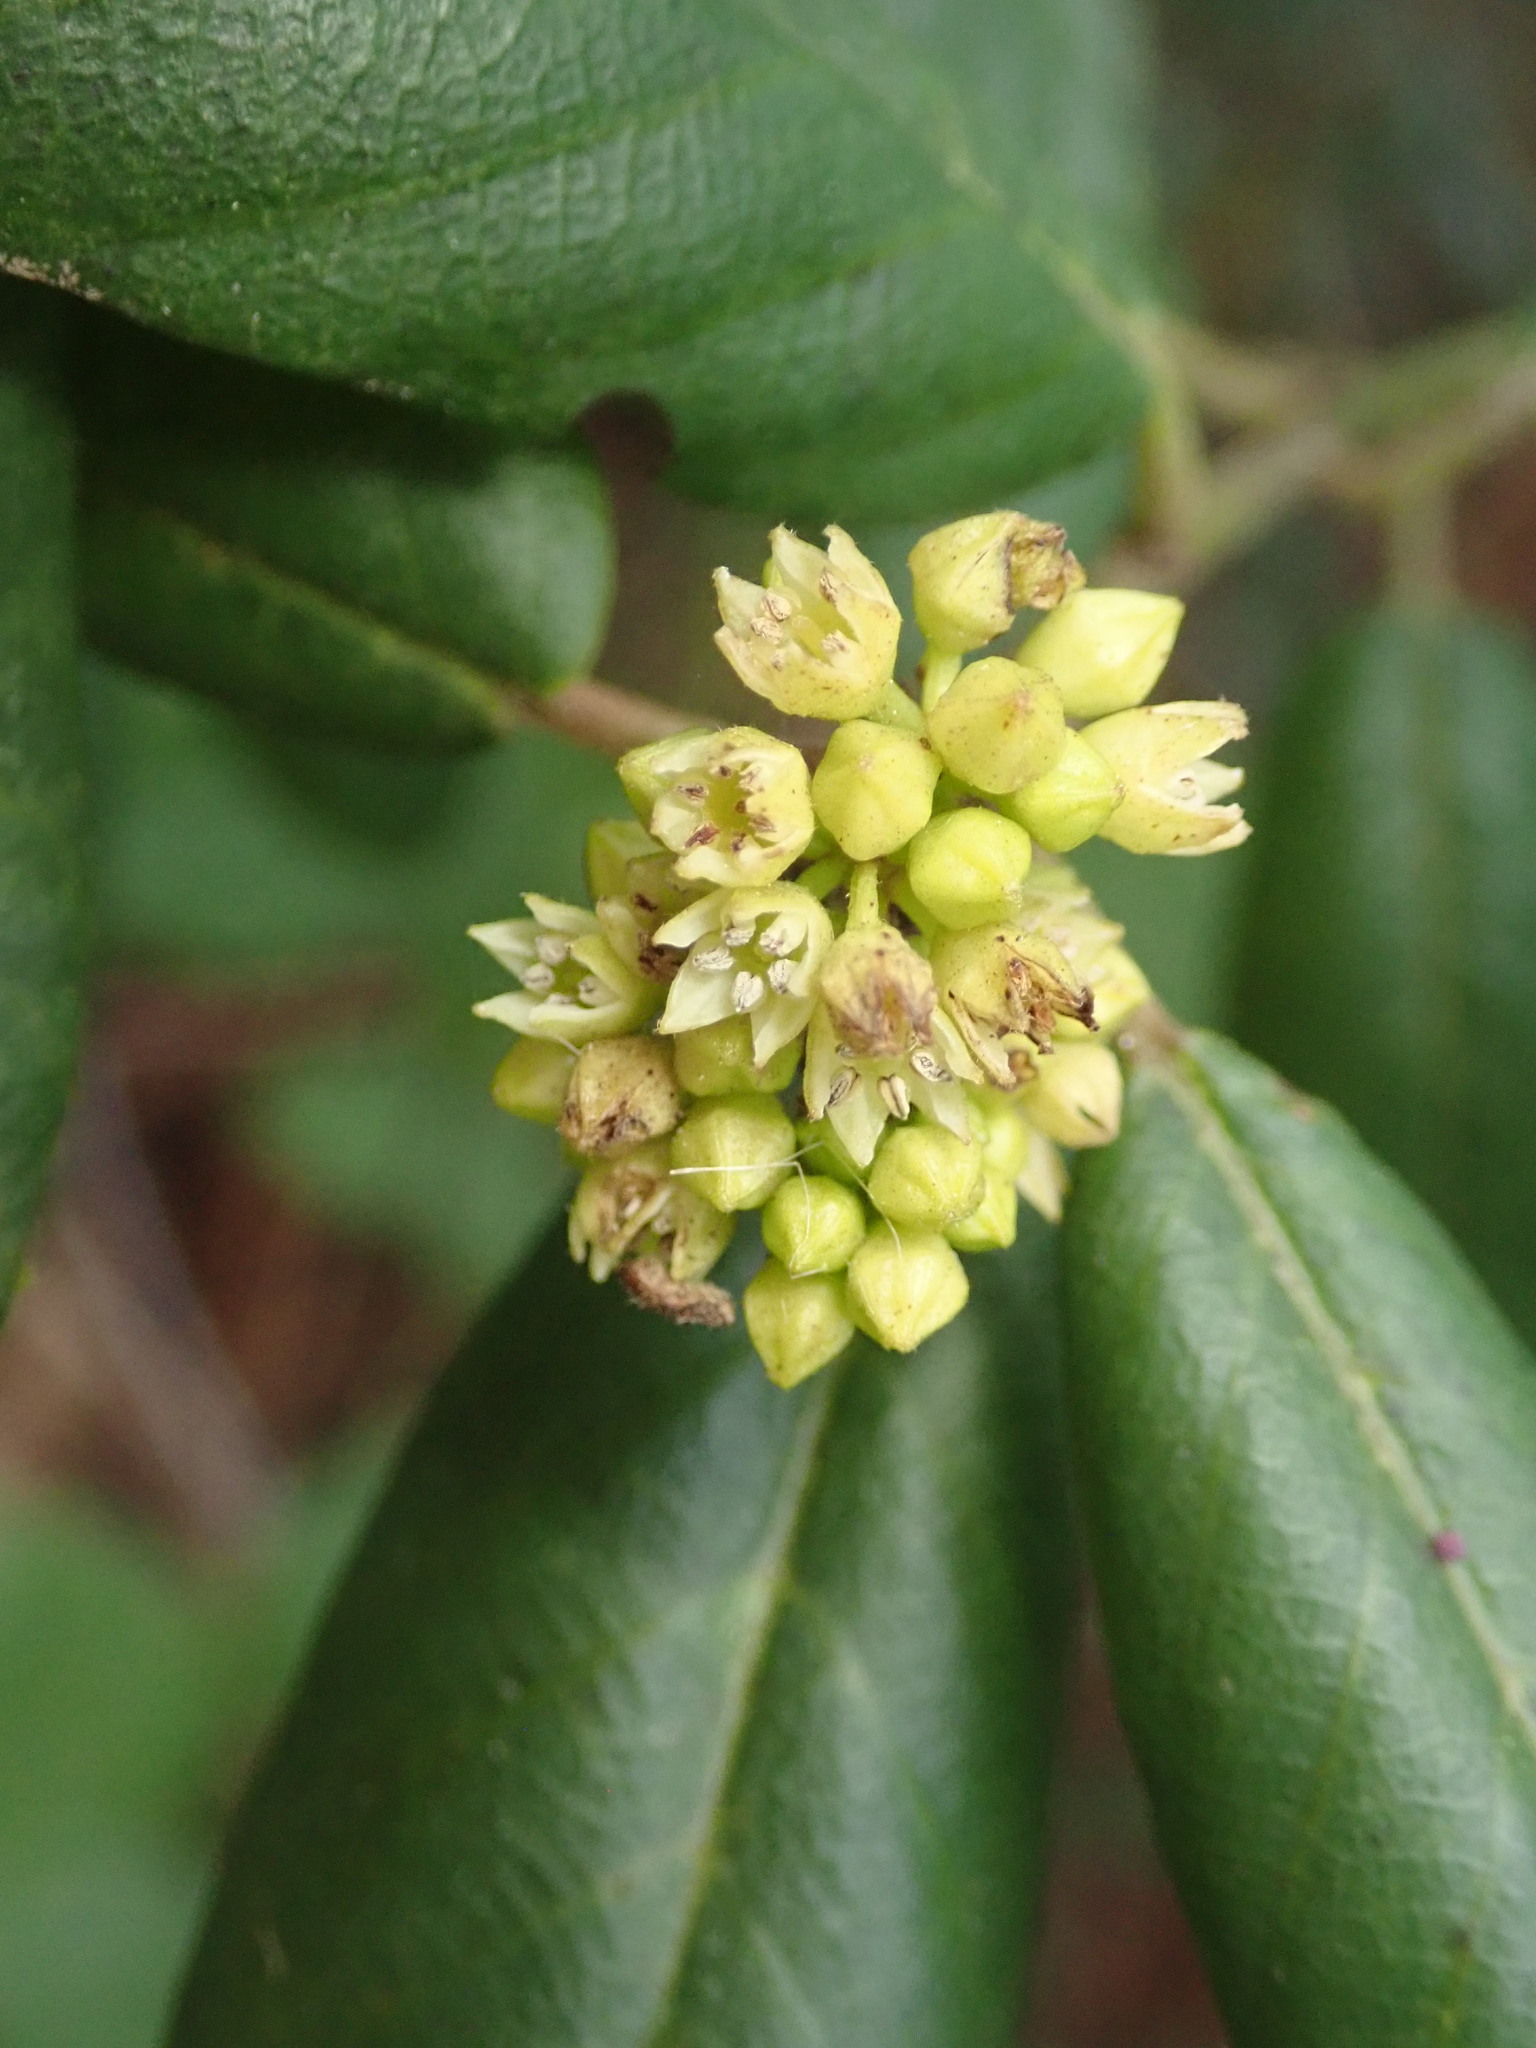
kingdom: Plantae
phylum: Tracheophyta
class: Magnoliopsida
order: Rosales
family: Rhamnaceae
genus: Frangula
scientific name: Frangula californica
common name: California buckthorn
